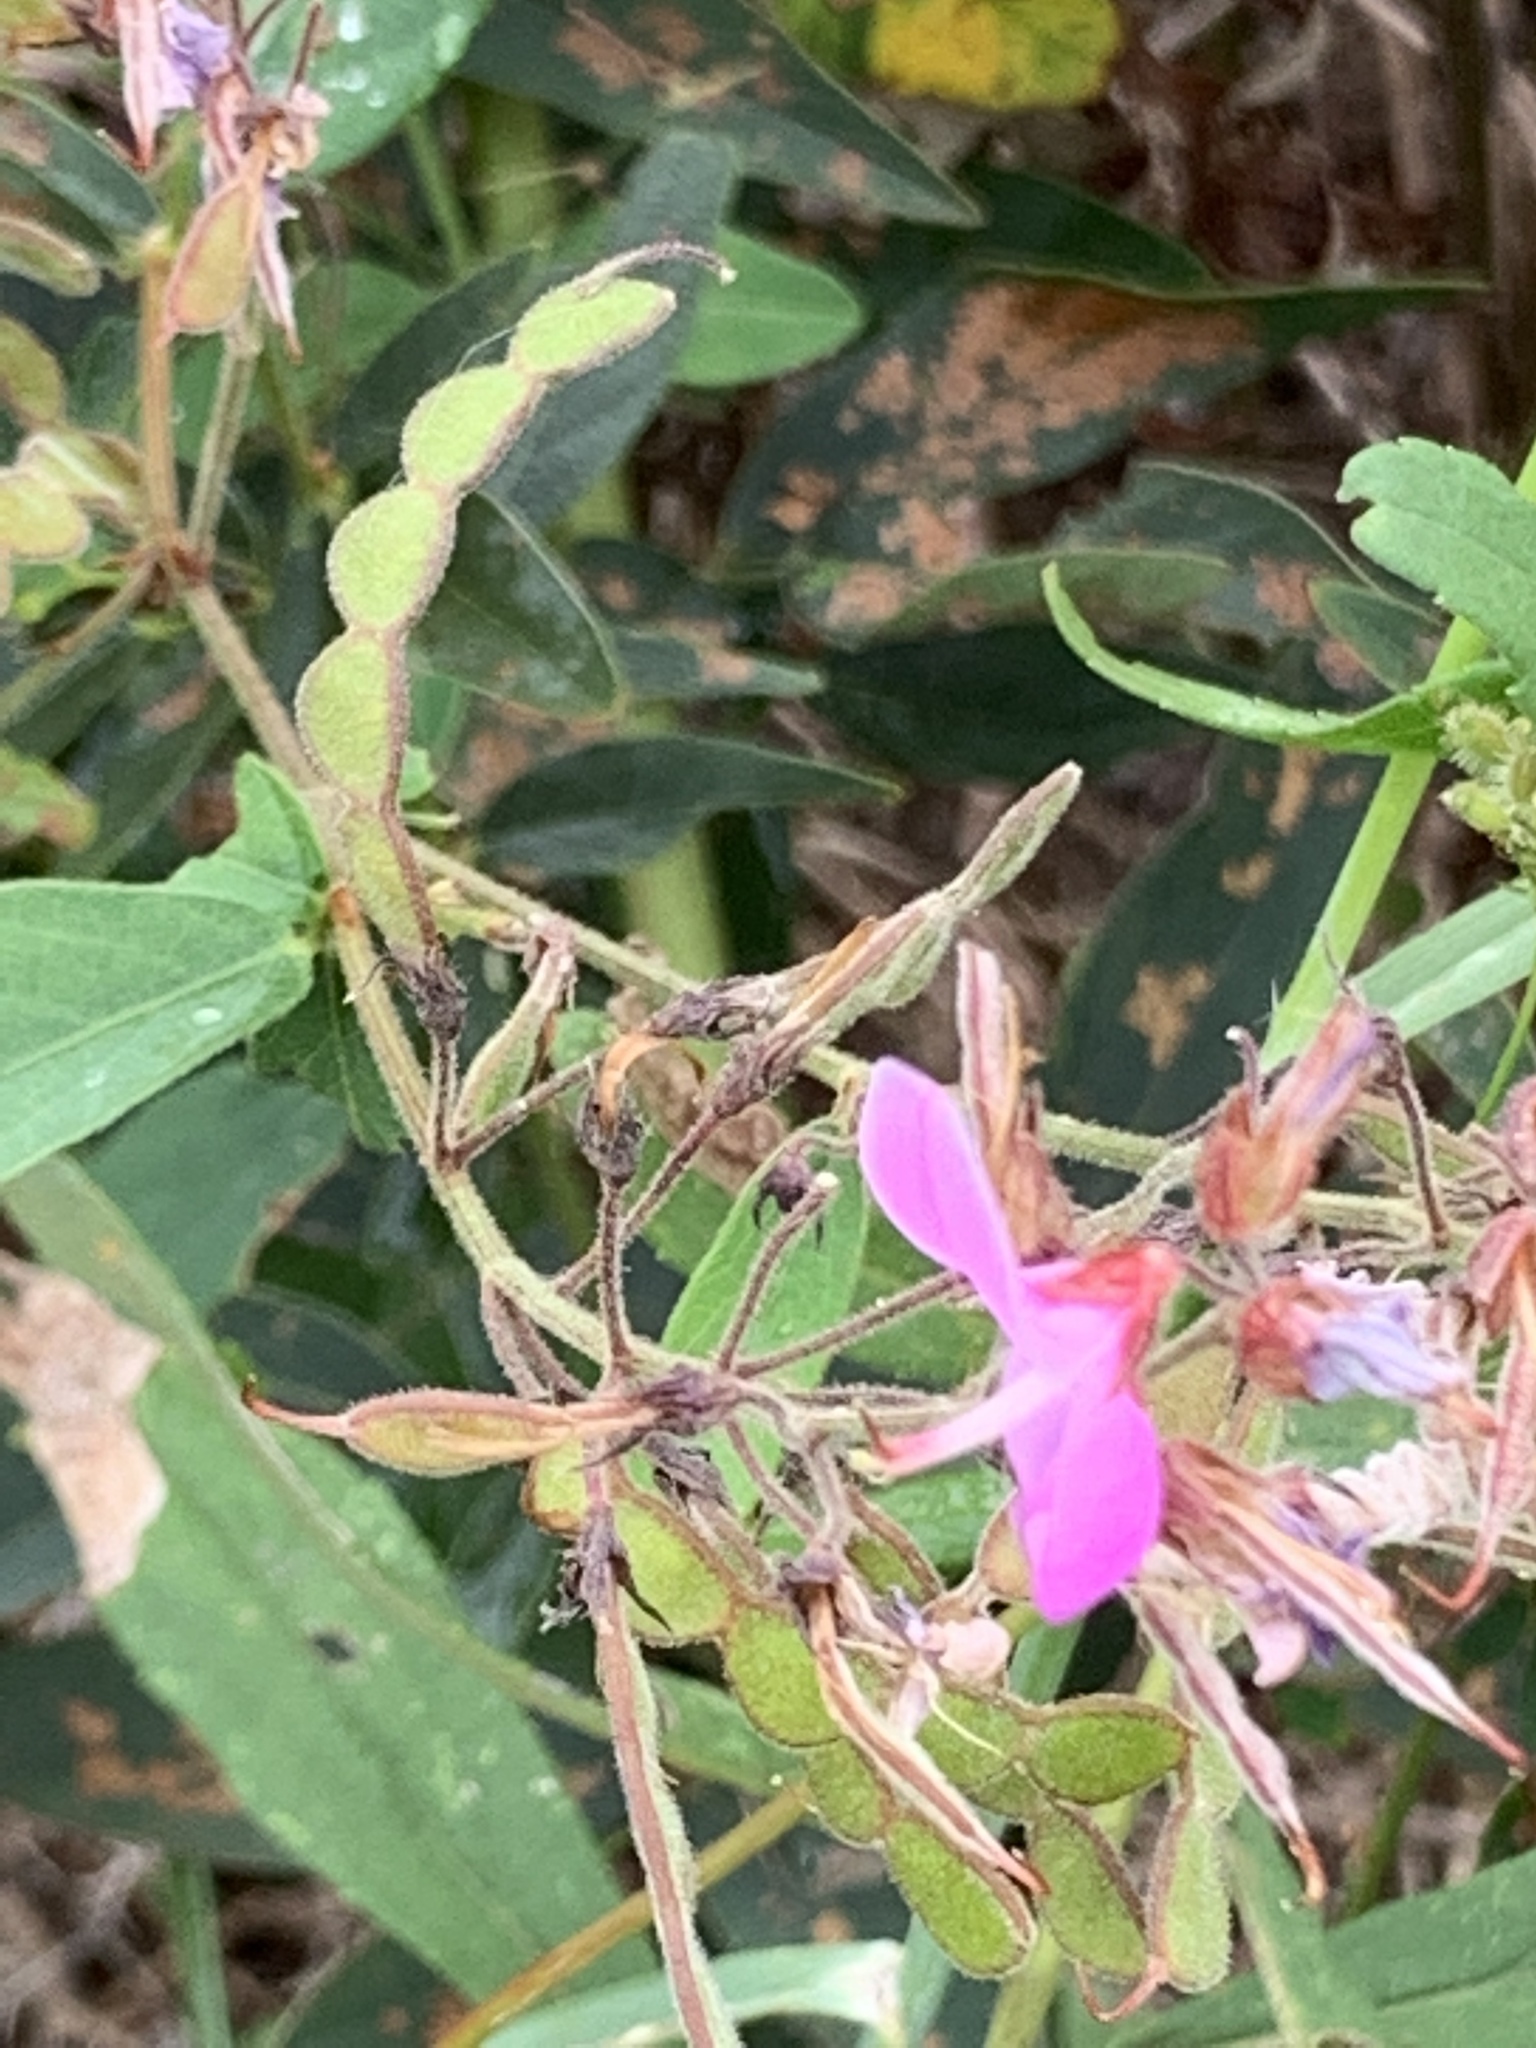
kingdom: Plantae
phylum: Tracheophyta
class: Magnoliopsida
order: Fabales
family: Fabaceae
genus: Desmodium
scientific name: Desmodium canadense
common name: Canada tick-trefoil
